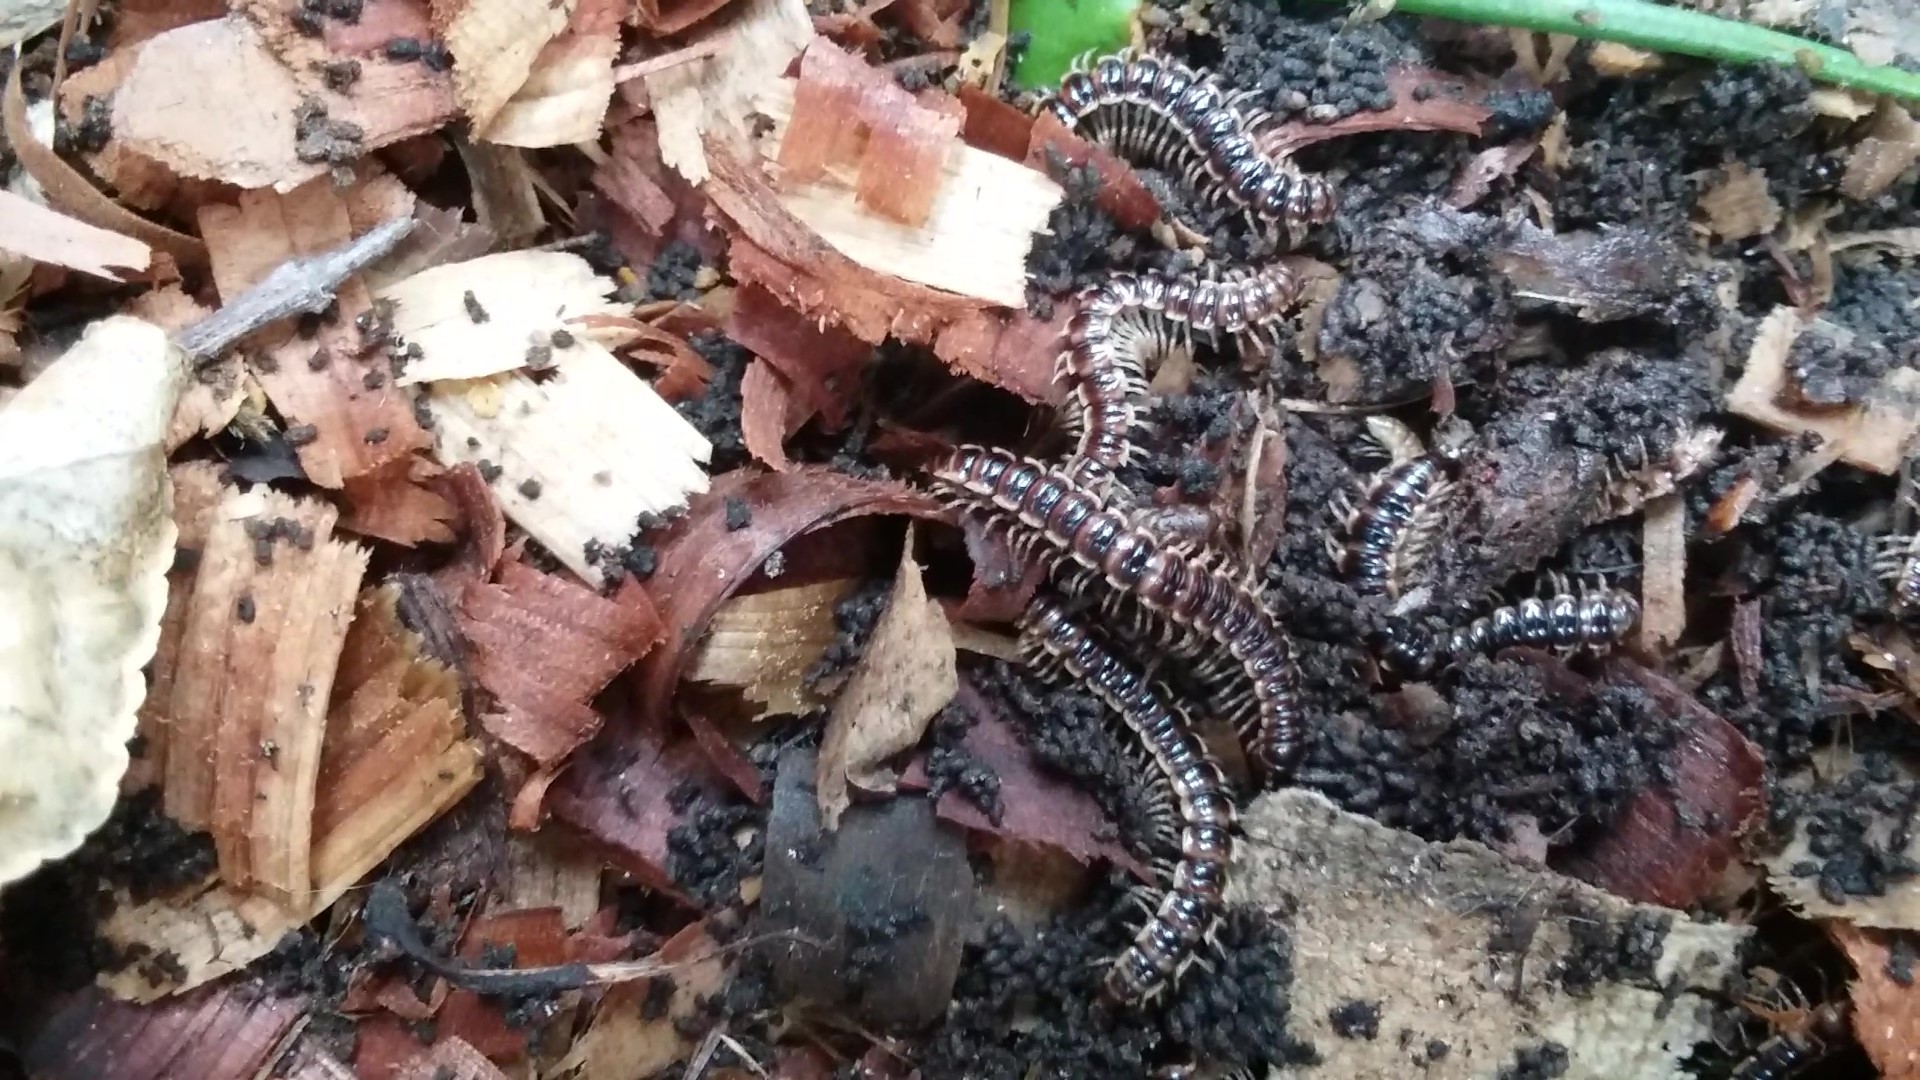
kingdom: Animalia
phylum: Arthropoda
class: Diplopoda
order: Polydesmida
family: Paradoxosomatidae
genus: Oxidus
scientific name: Oxidus gracilis
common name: Greenhouse millipede
